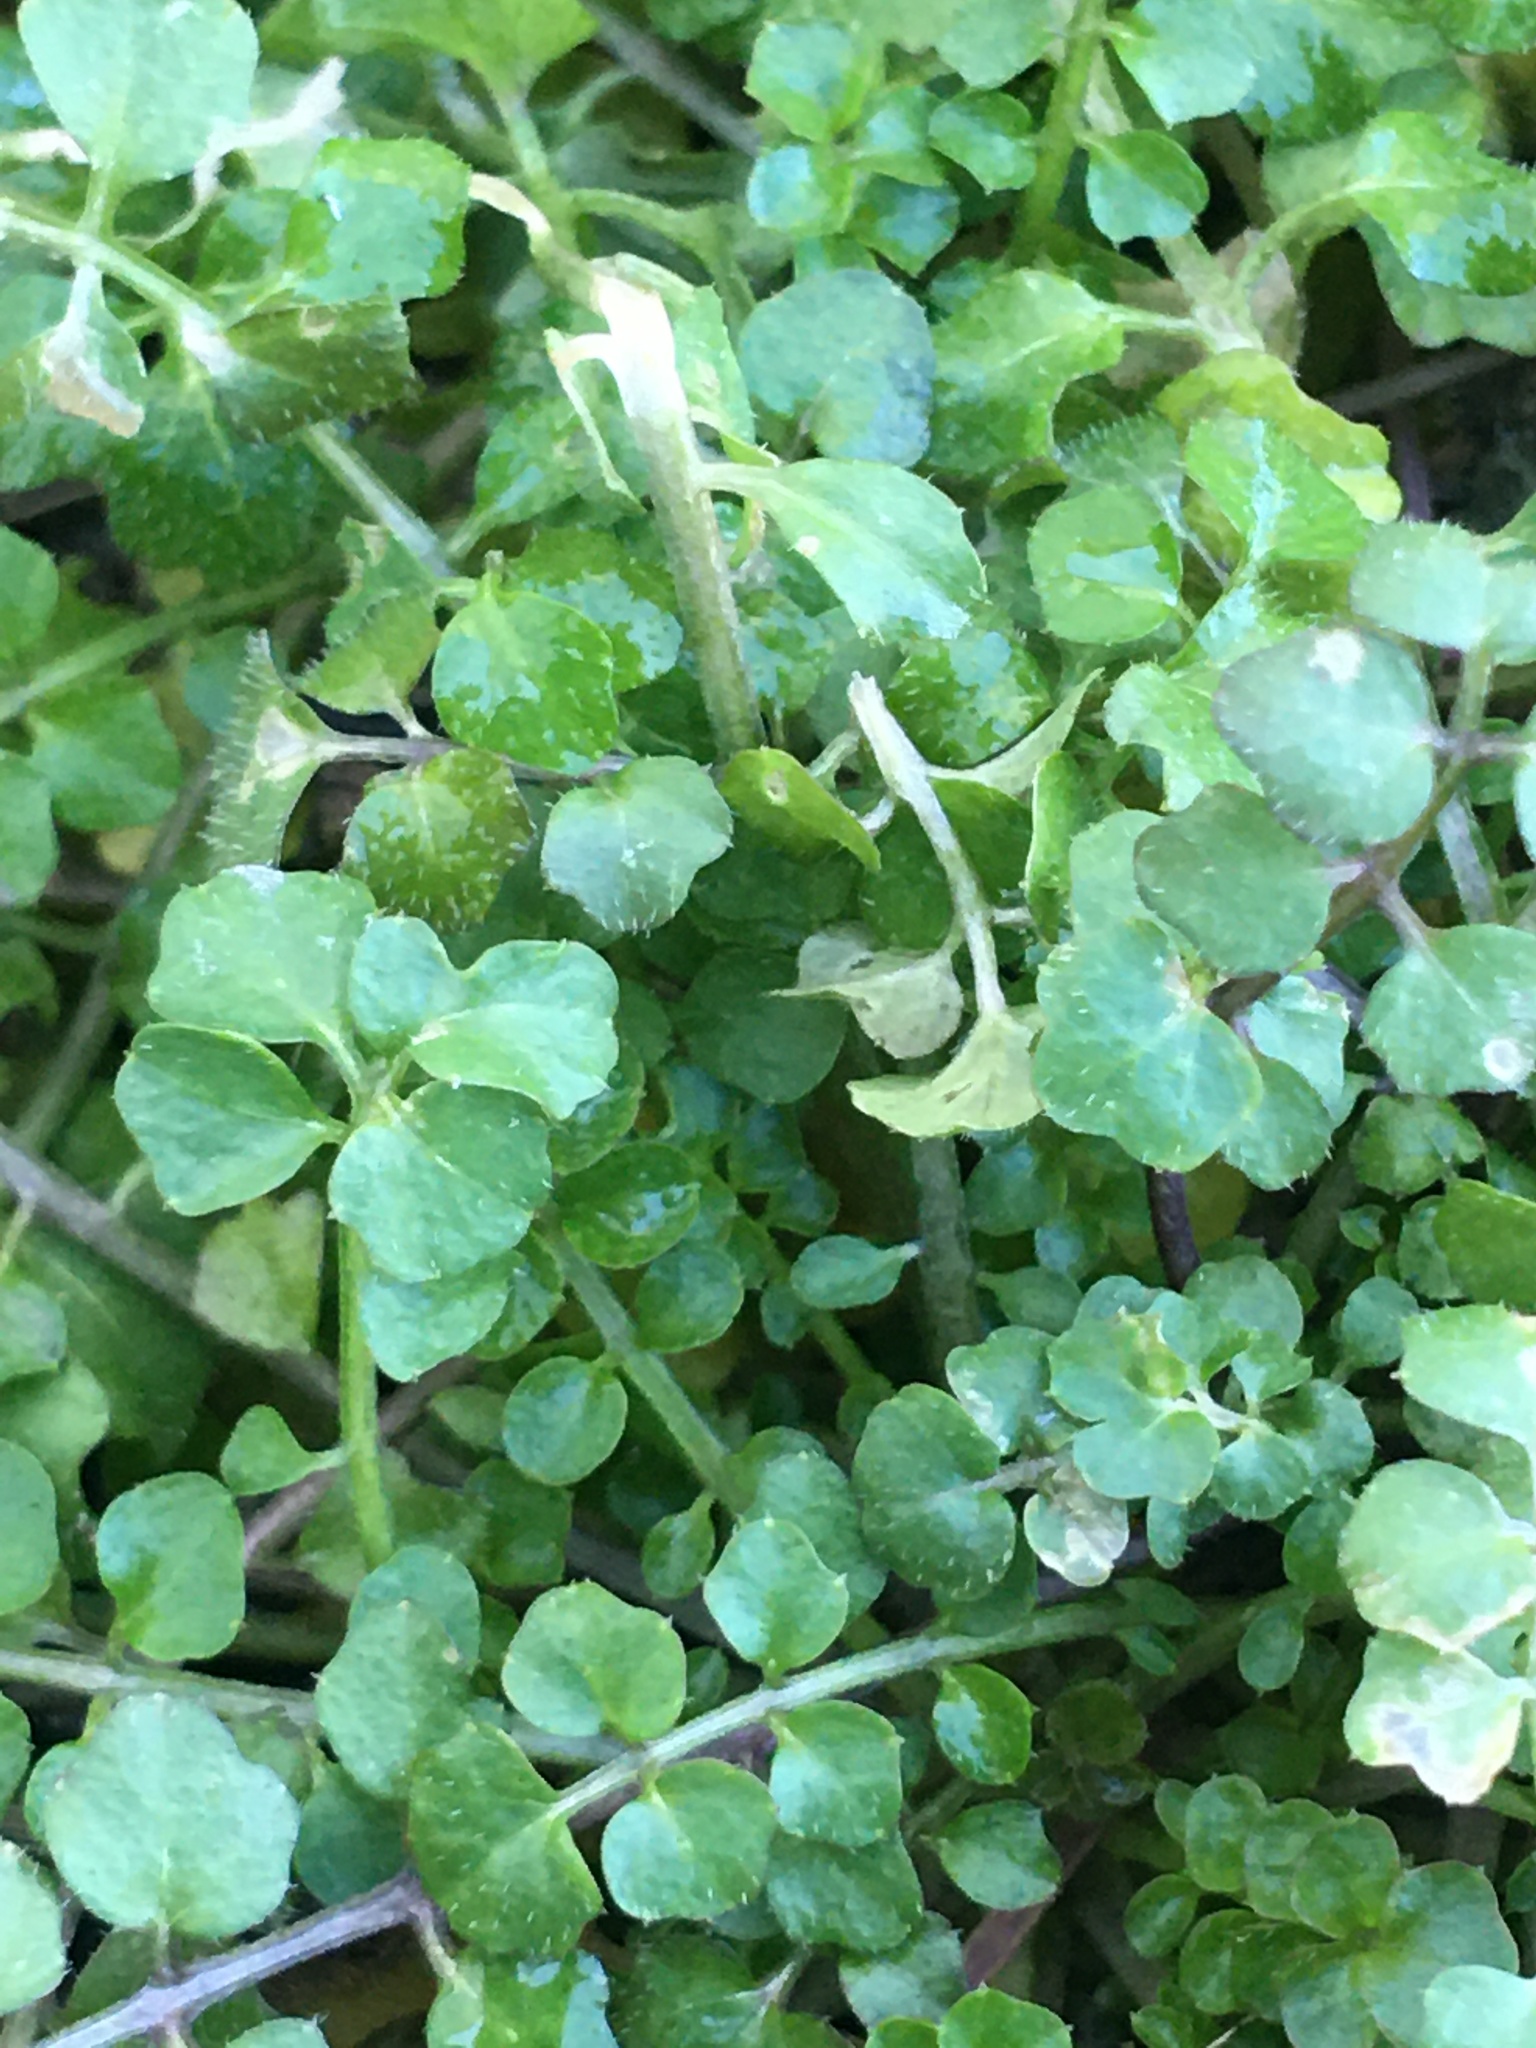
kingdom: Plantae
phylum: Tracheophyta
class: Magnoliopsida
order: Brassicales
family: Brassicaceae
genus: Cardamine
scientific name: Cardamine hirsuta
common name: Hairy bittercress
